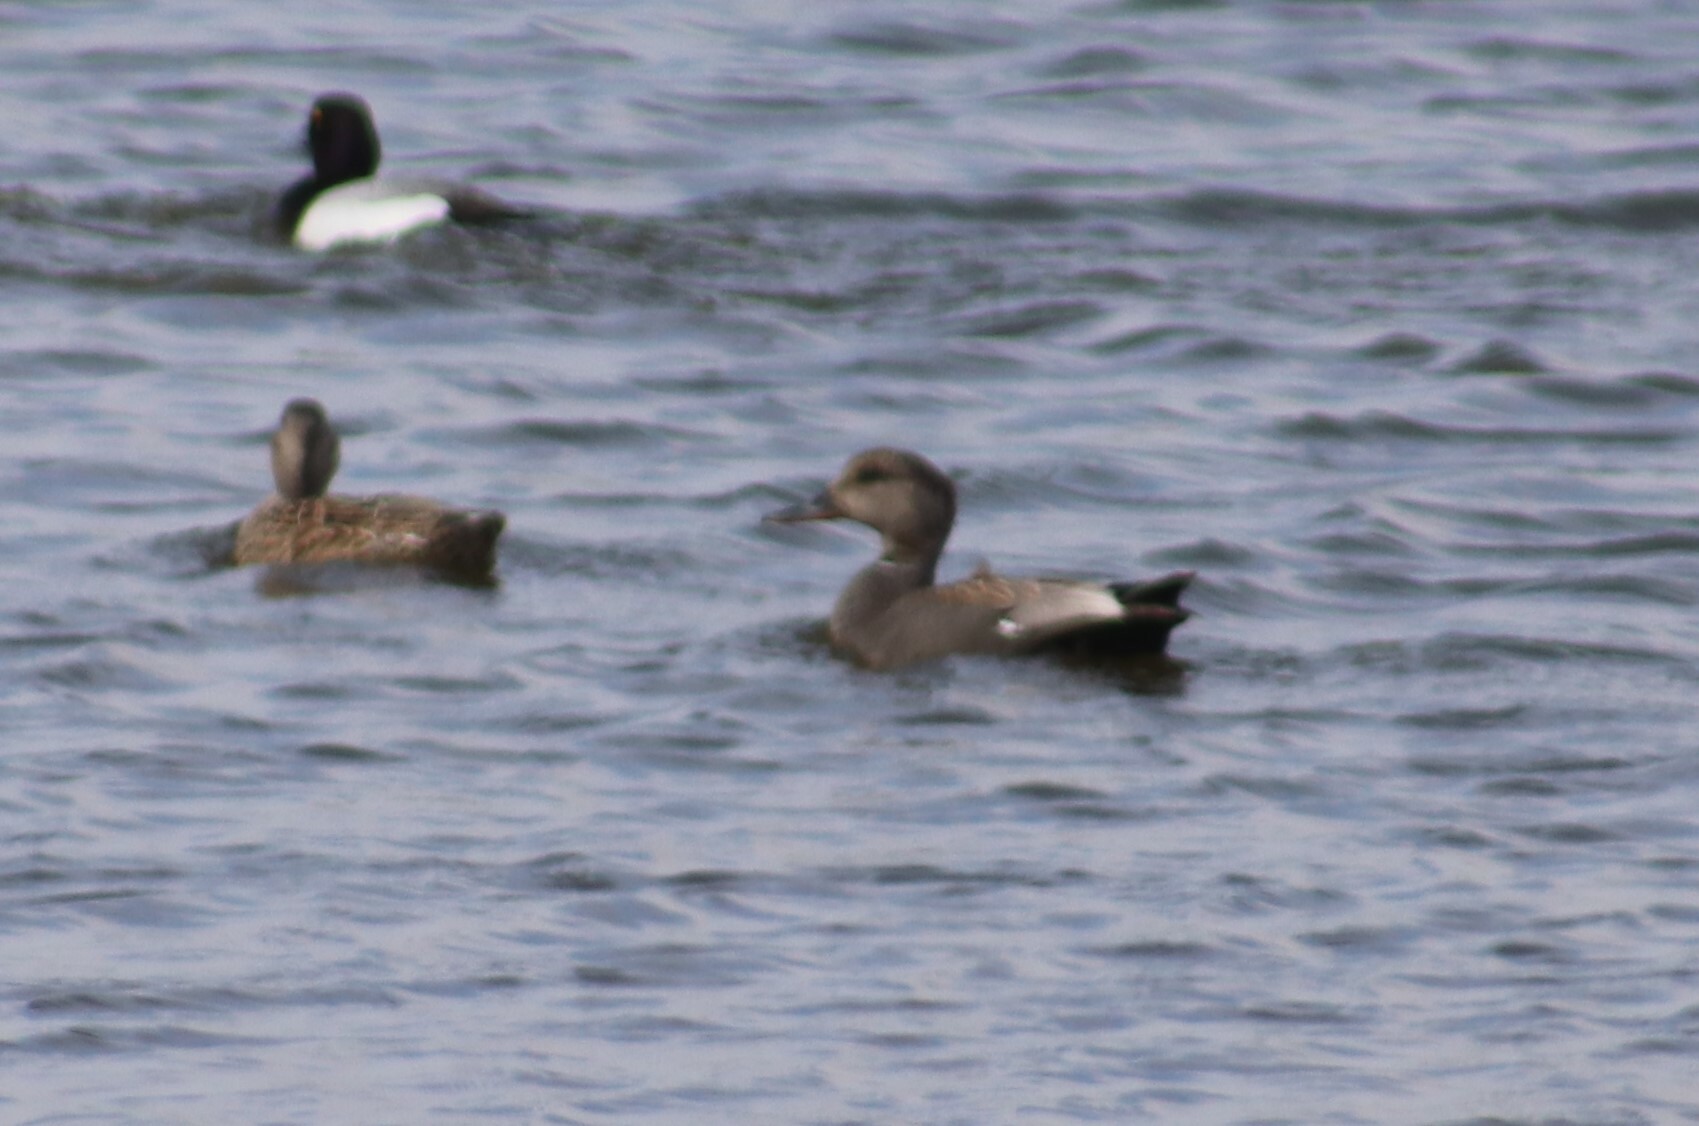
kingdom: Animalia
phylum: Chordata
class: Aves
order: Anseriformes
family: Anatidae
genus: Mareca
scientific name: Mareca strepera
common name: Gadwall
